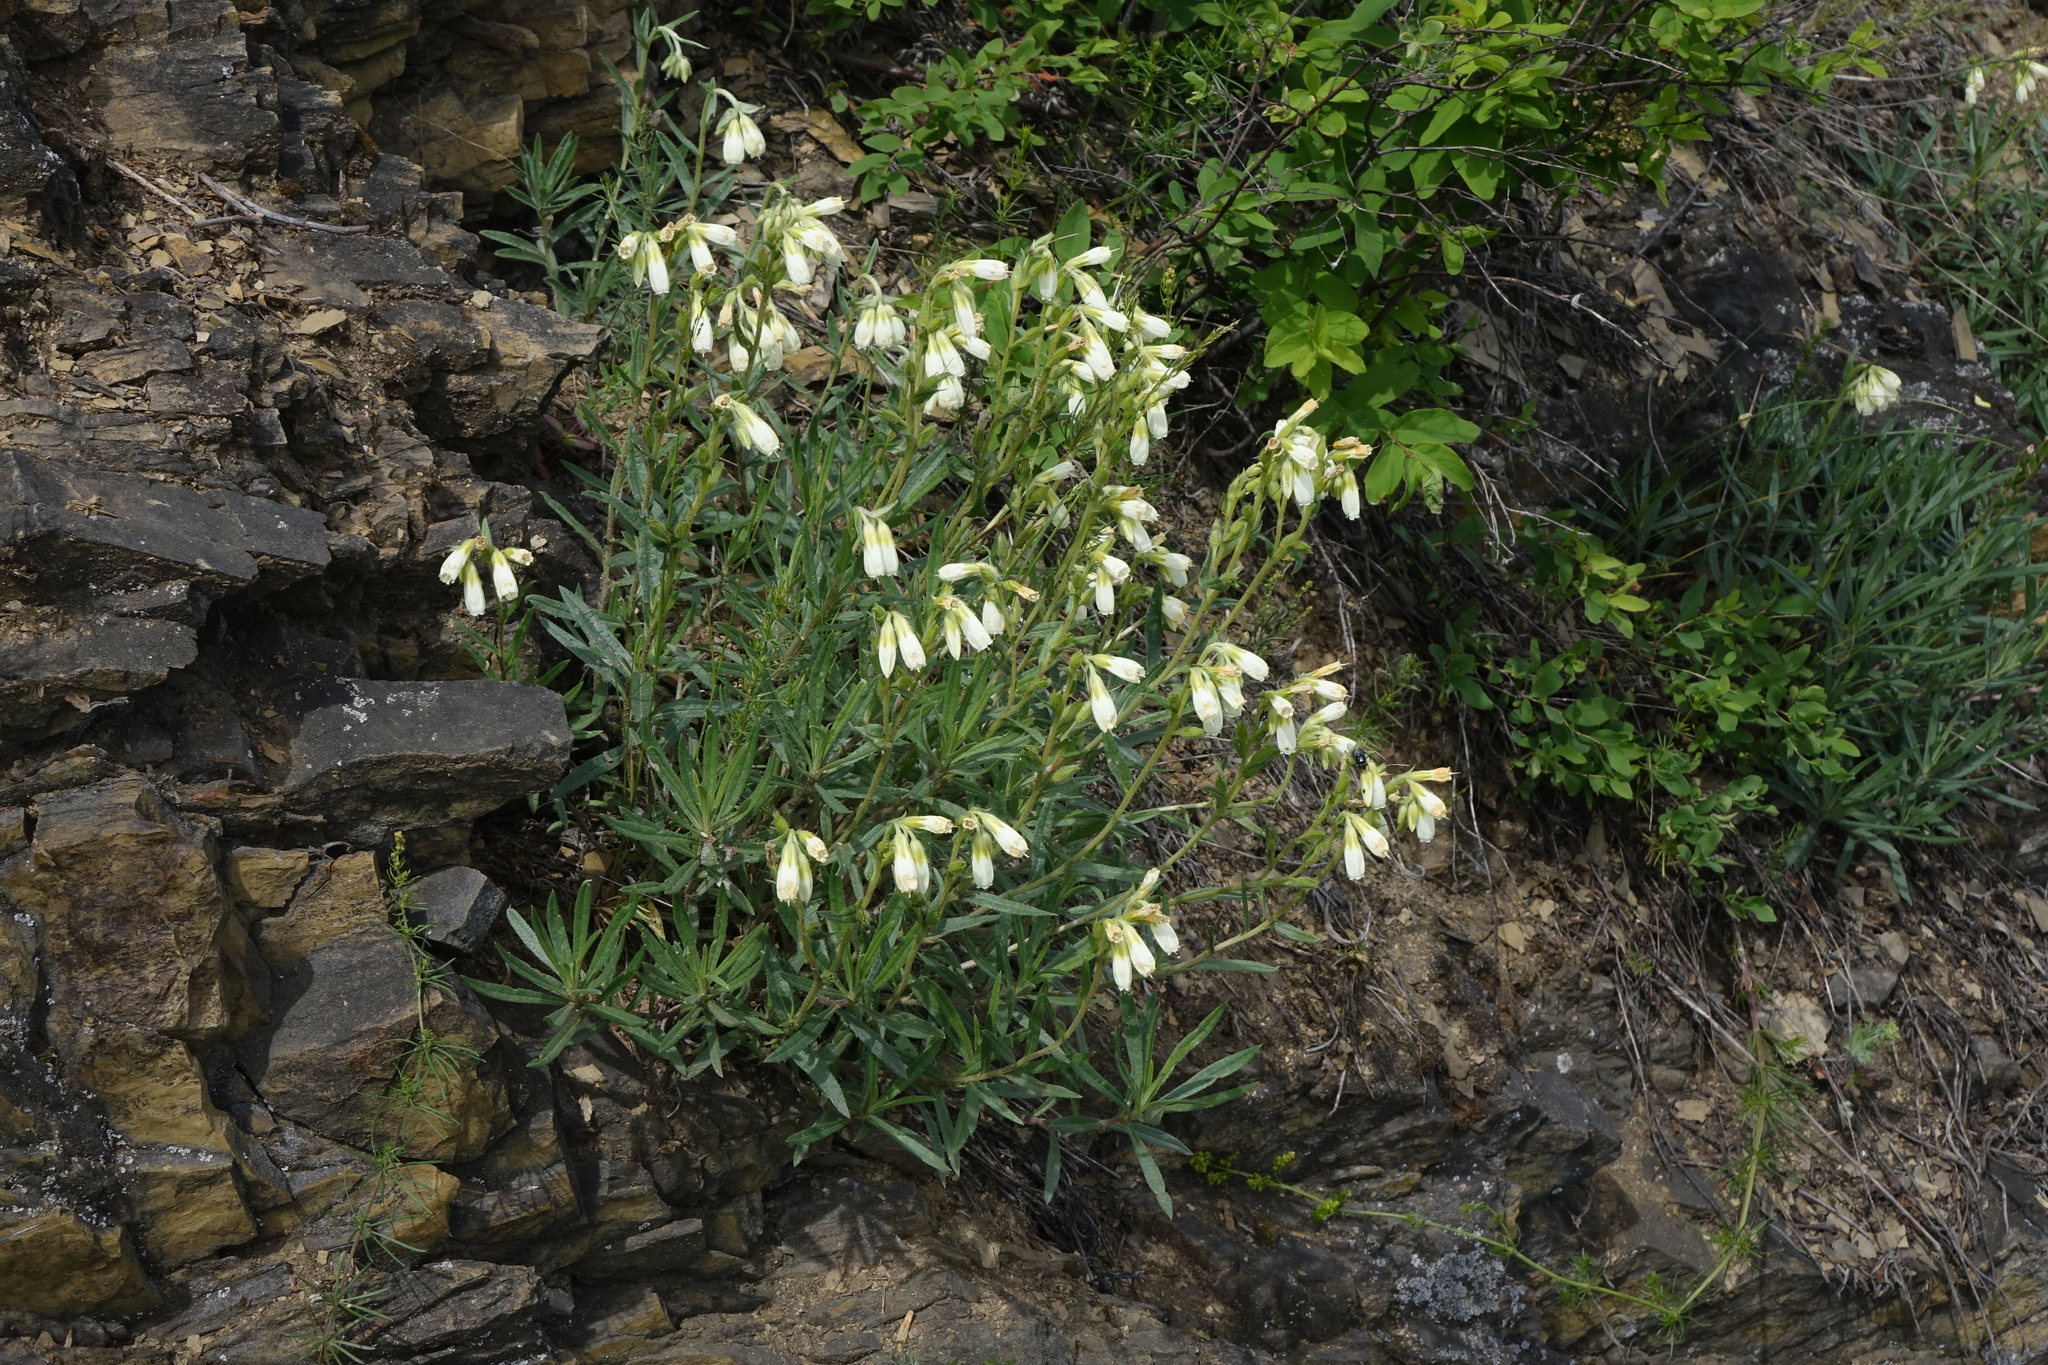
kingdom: Plantae
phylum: Tracheophyta
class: Magnoliopsida
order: Boraginales
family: Boraginaceae
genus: Onosma
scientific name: Onosma simplicissima
